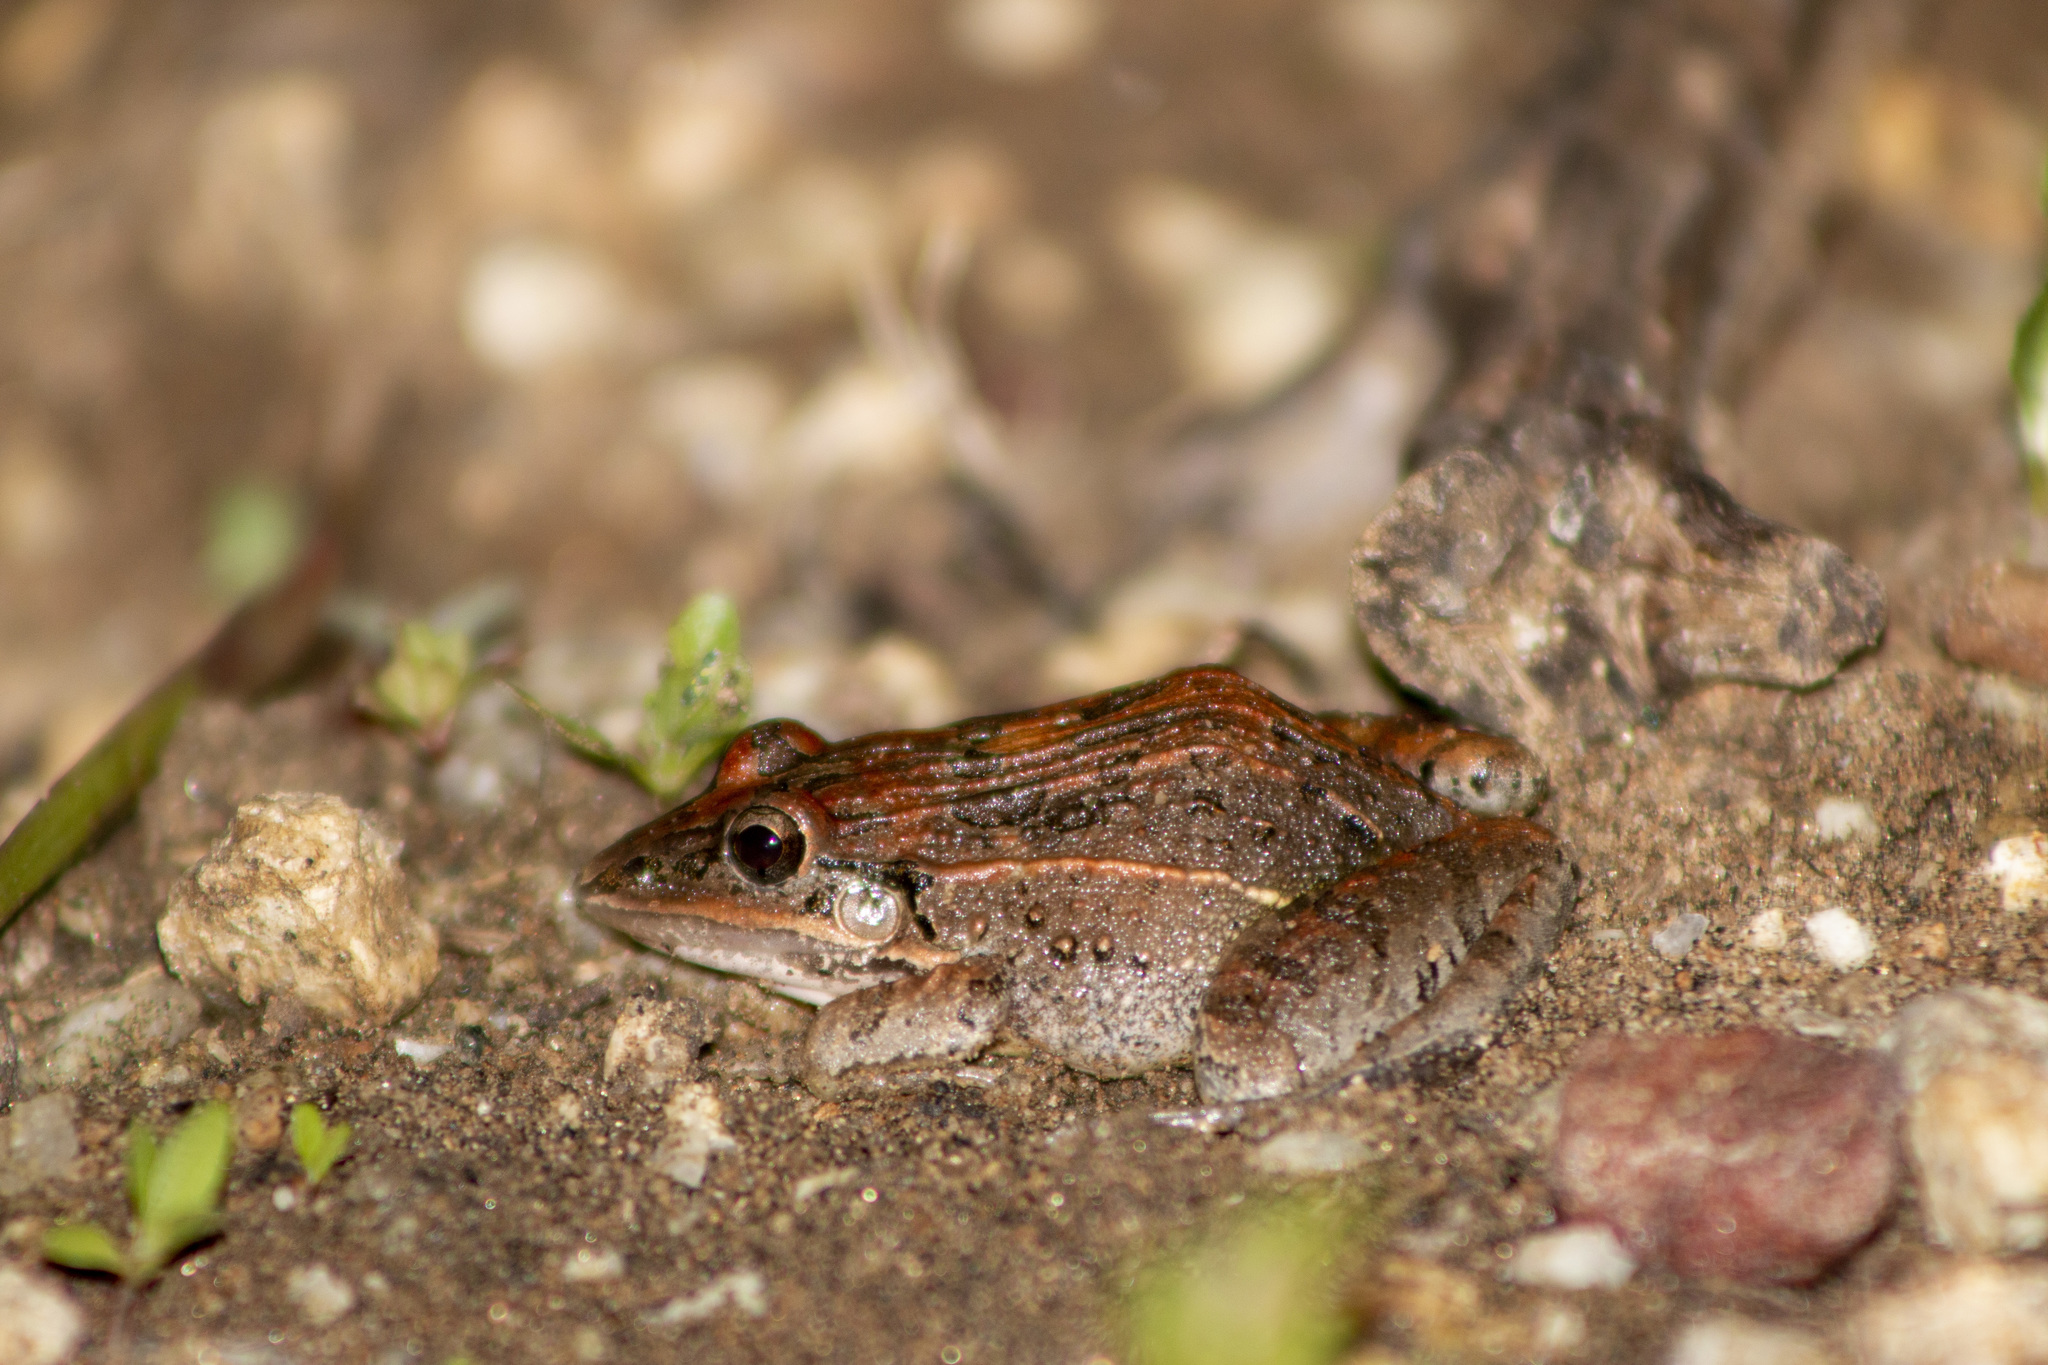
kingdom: Animalia
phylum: Chordata
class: Amphibia
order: Anura
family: Leptodactylidae
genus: Leptodactylus
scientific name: Leptodactylus fuscus
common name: Rufous frog
